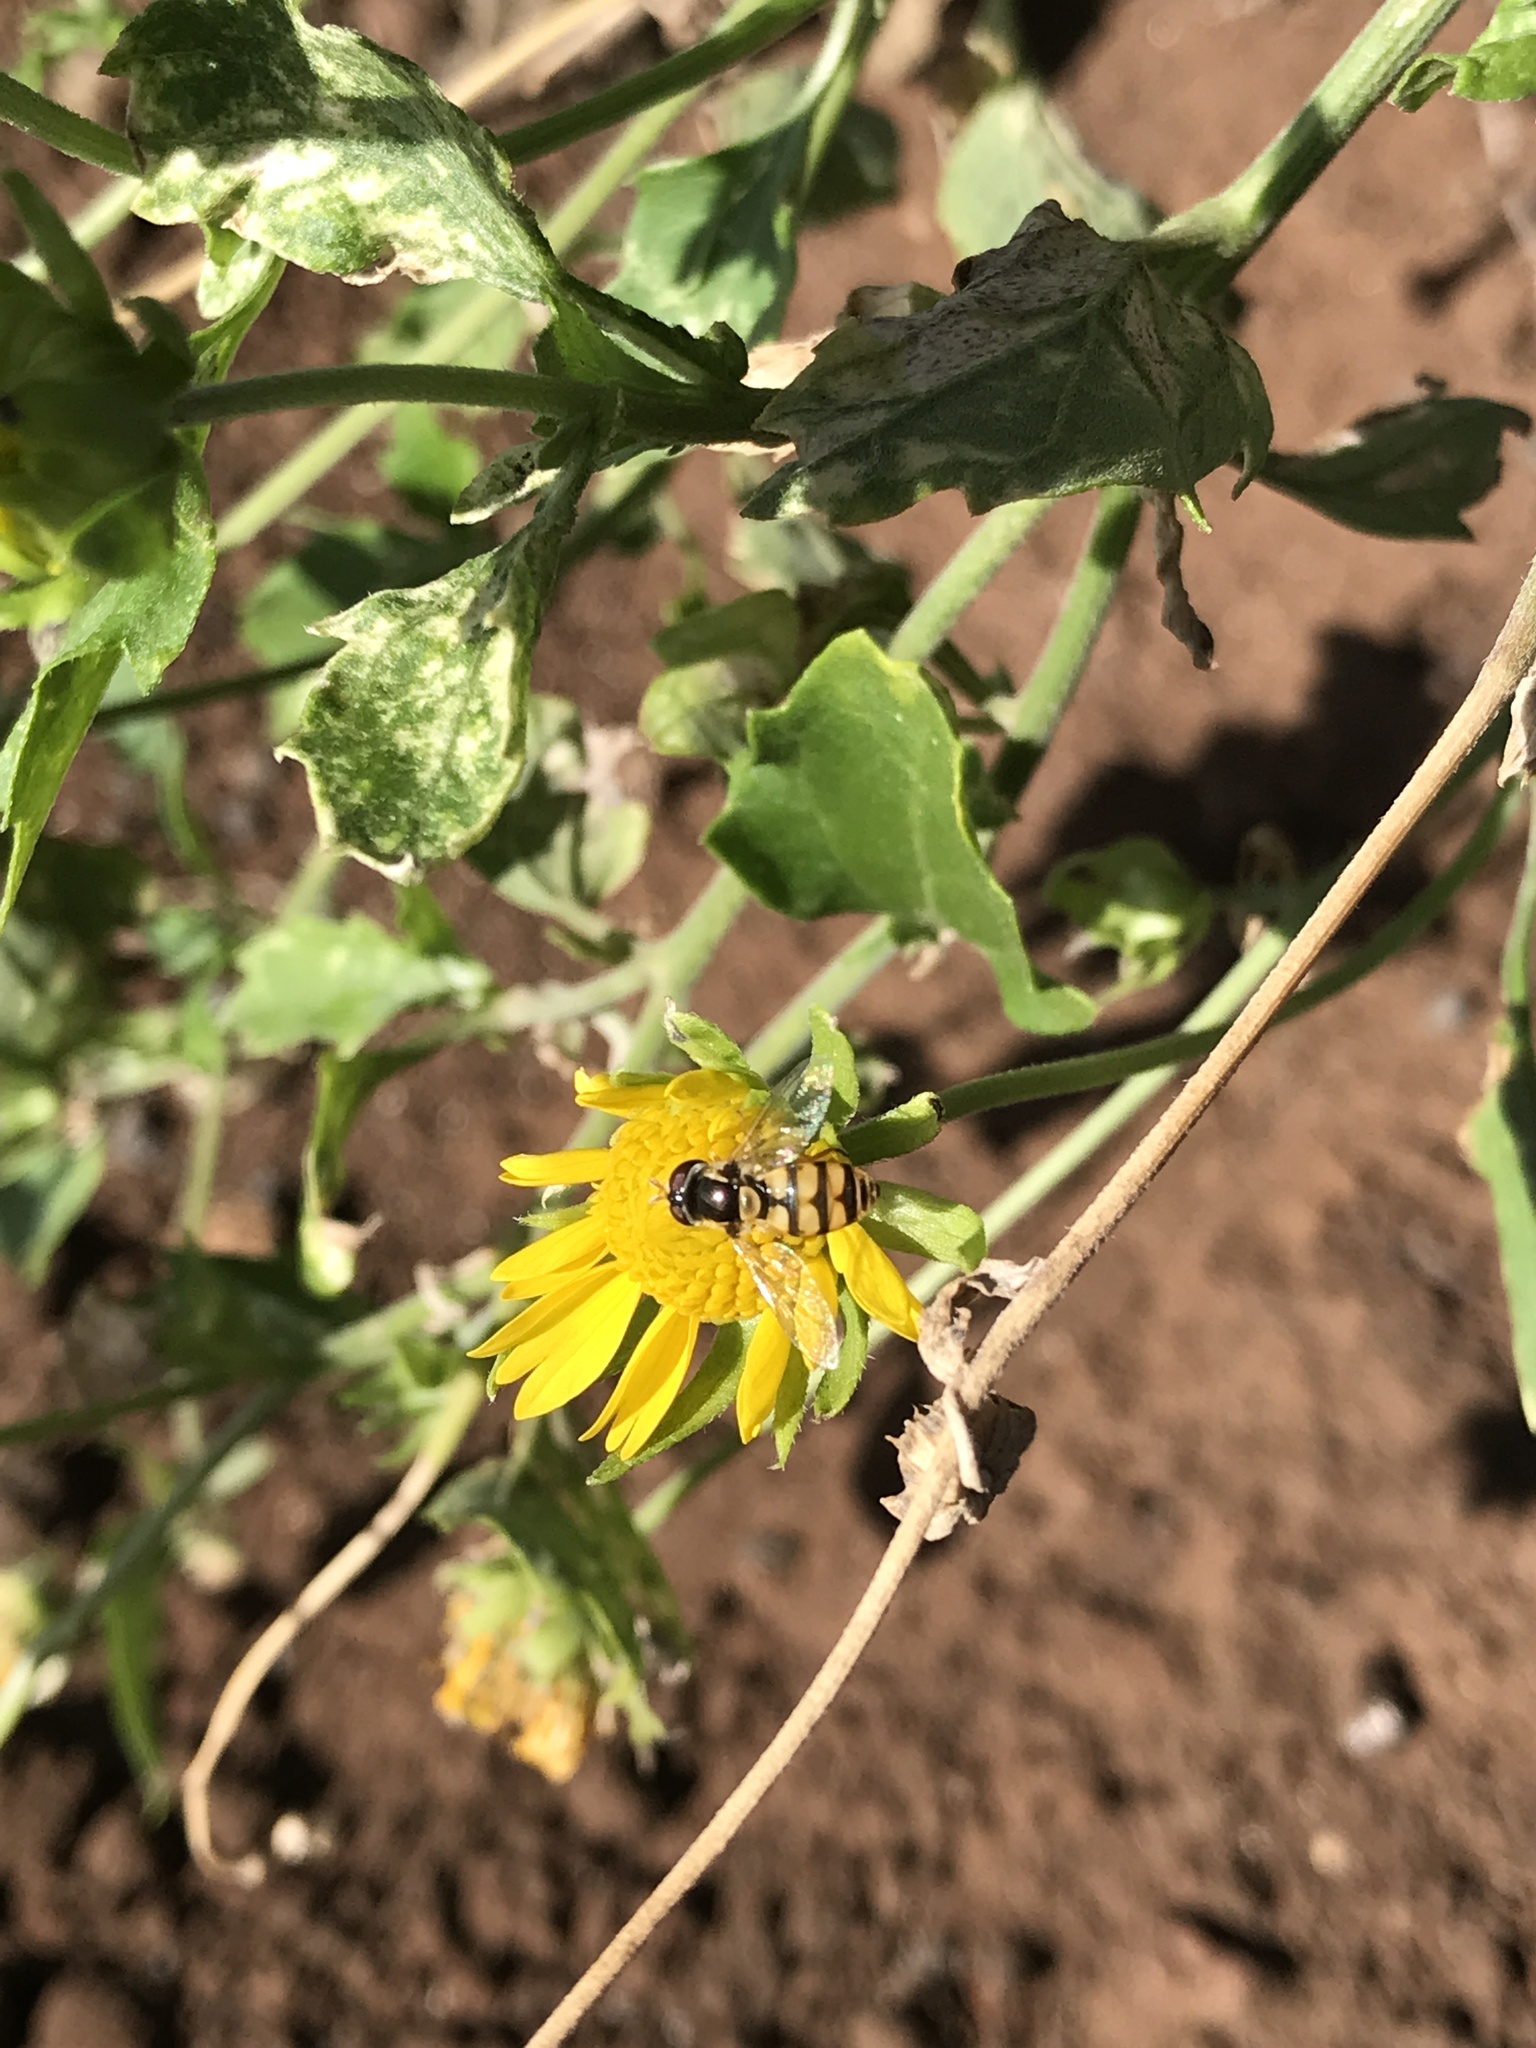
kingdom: Animalia
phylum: Arthropoda
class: Insecta
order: Diptera
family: Syrphidae
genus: Simosyrphus
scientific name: Simosyrphus grandicornis
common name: Hoverfly
